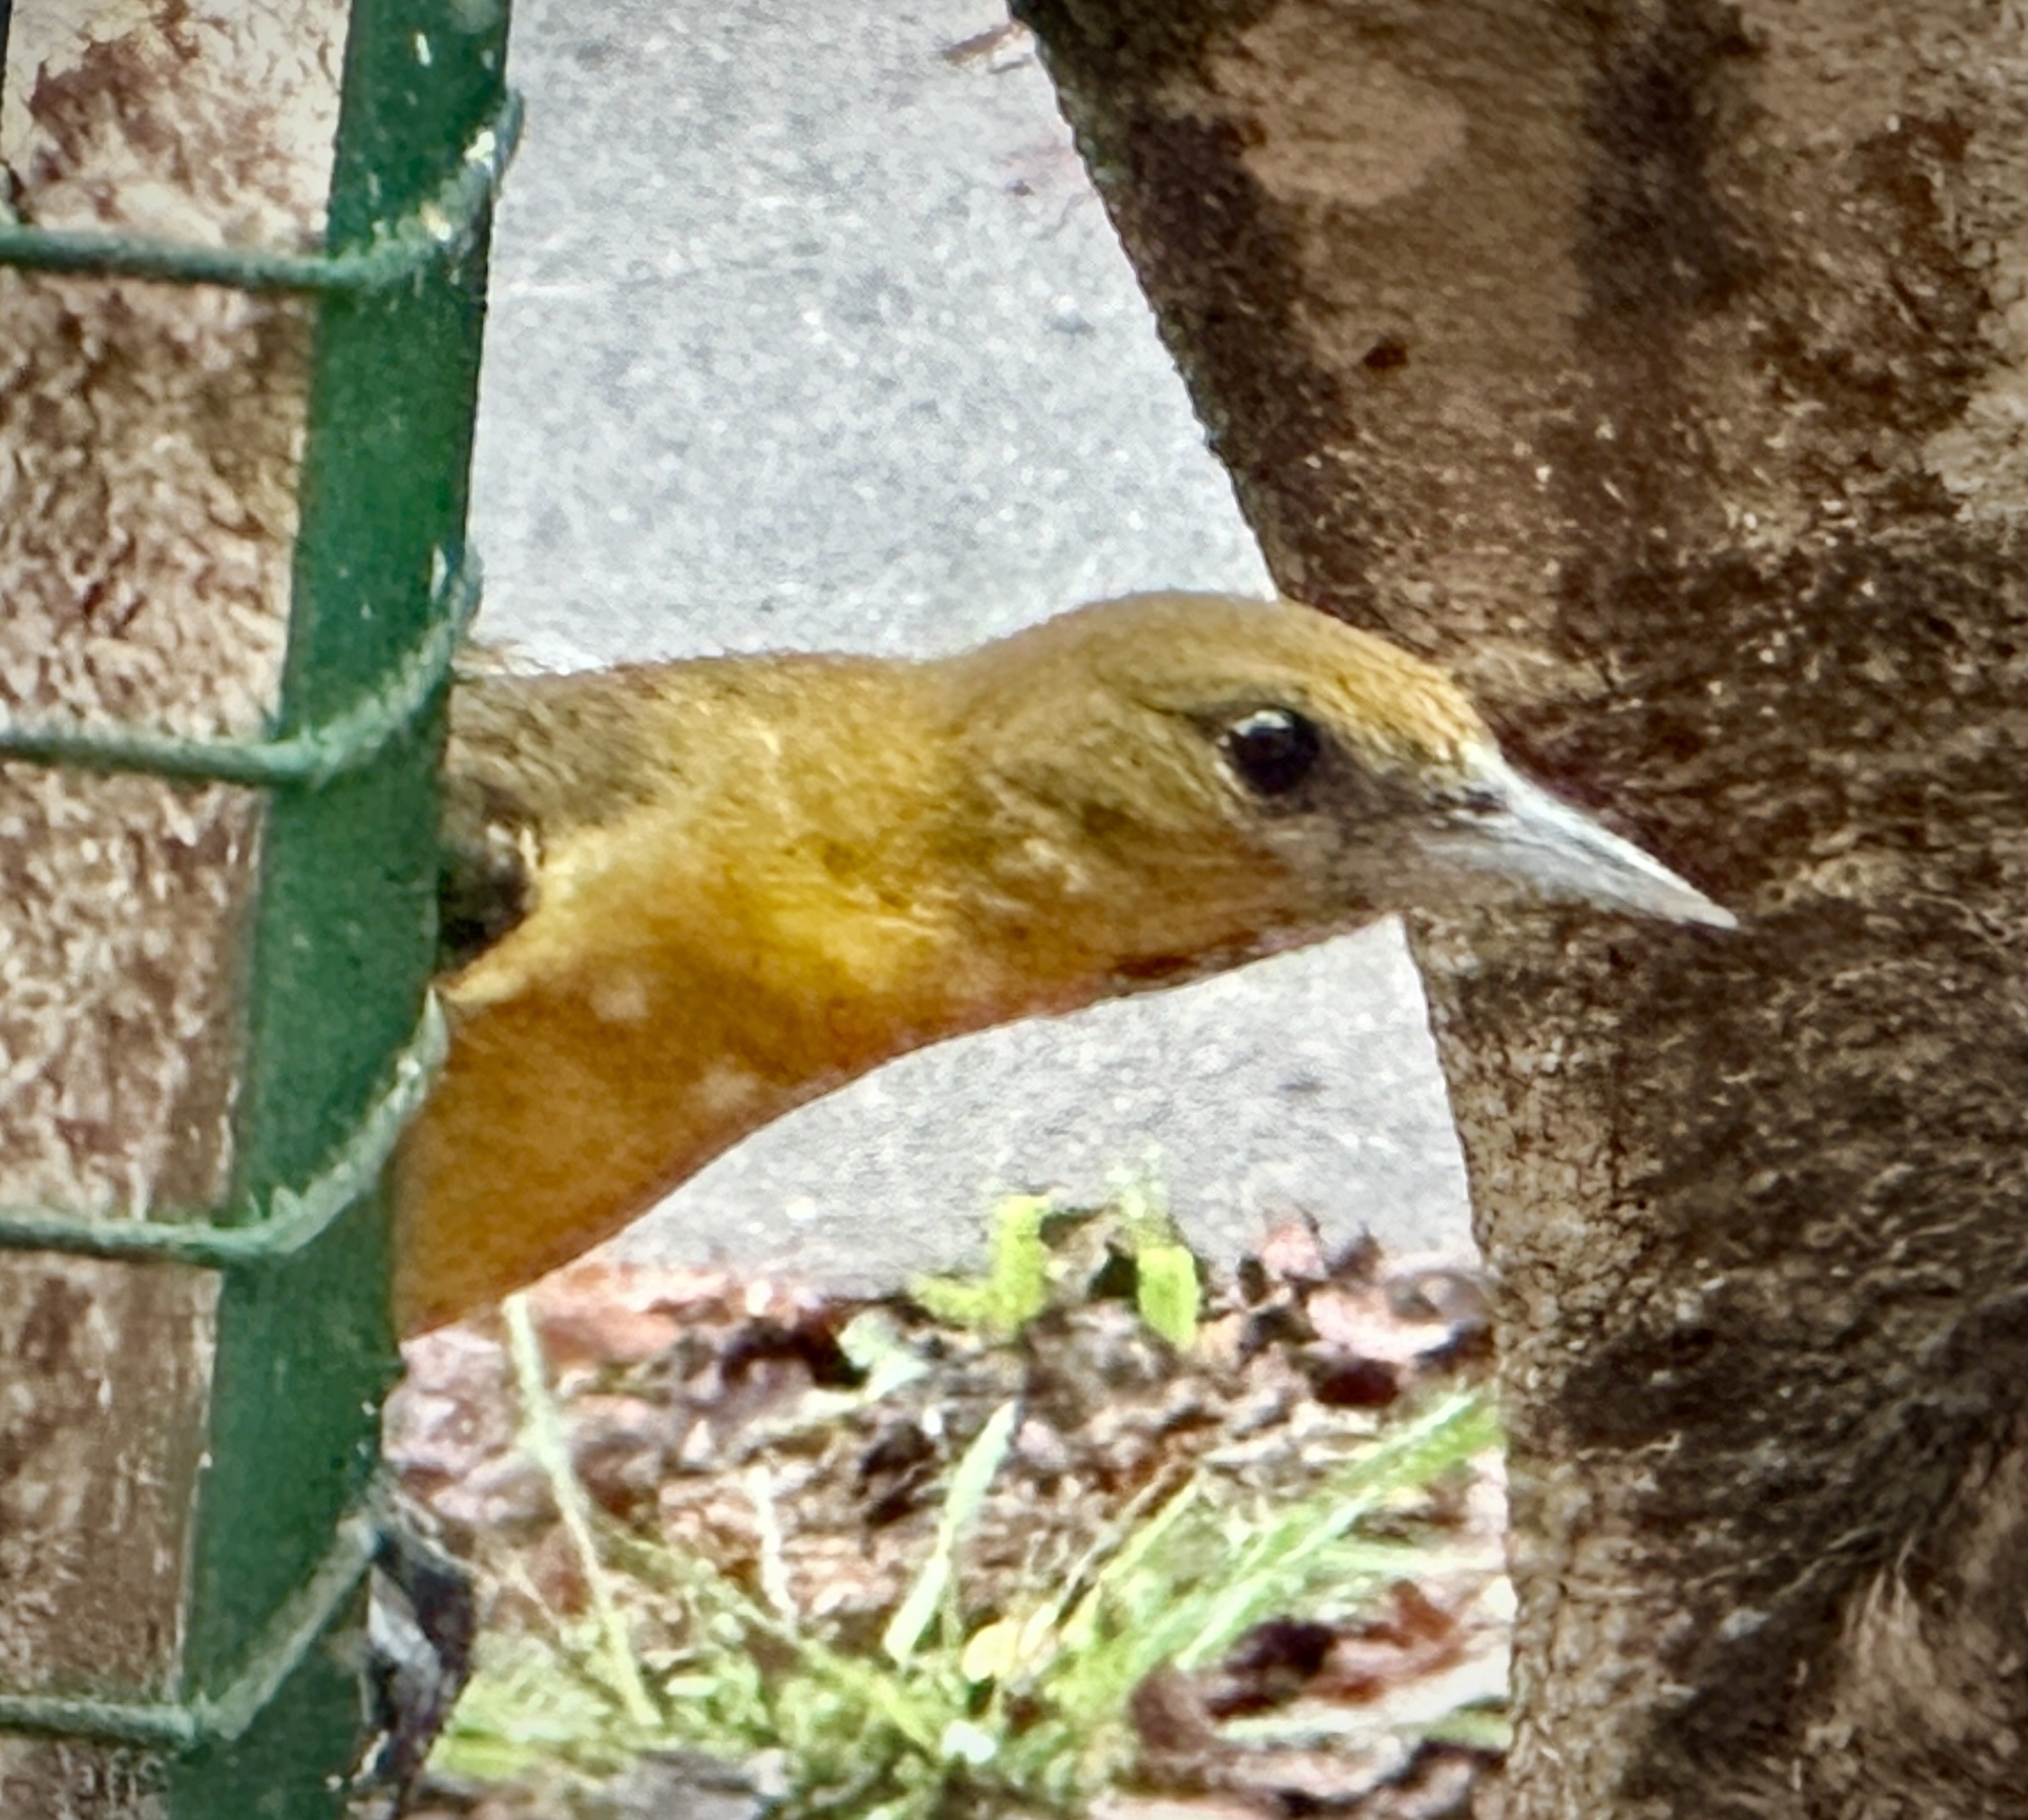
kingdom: Animalia
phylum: Chordata
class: Aves
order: Passeriformes
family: Icteridae
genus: Icterus
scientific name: Icterus galbula
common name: Baltimore oriole
